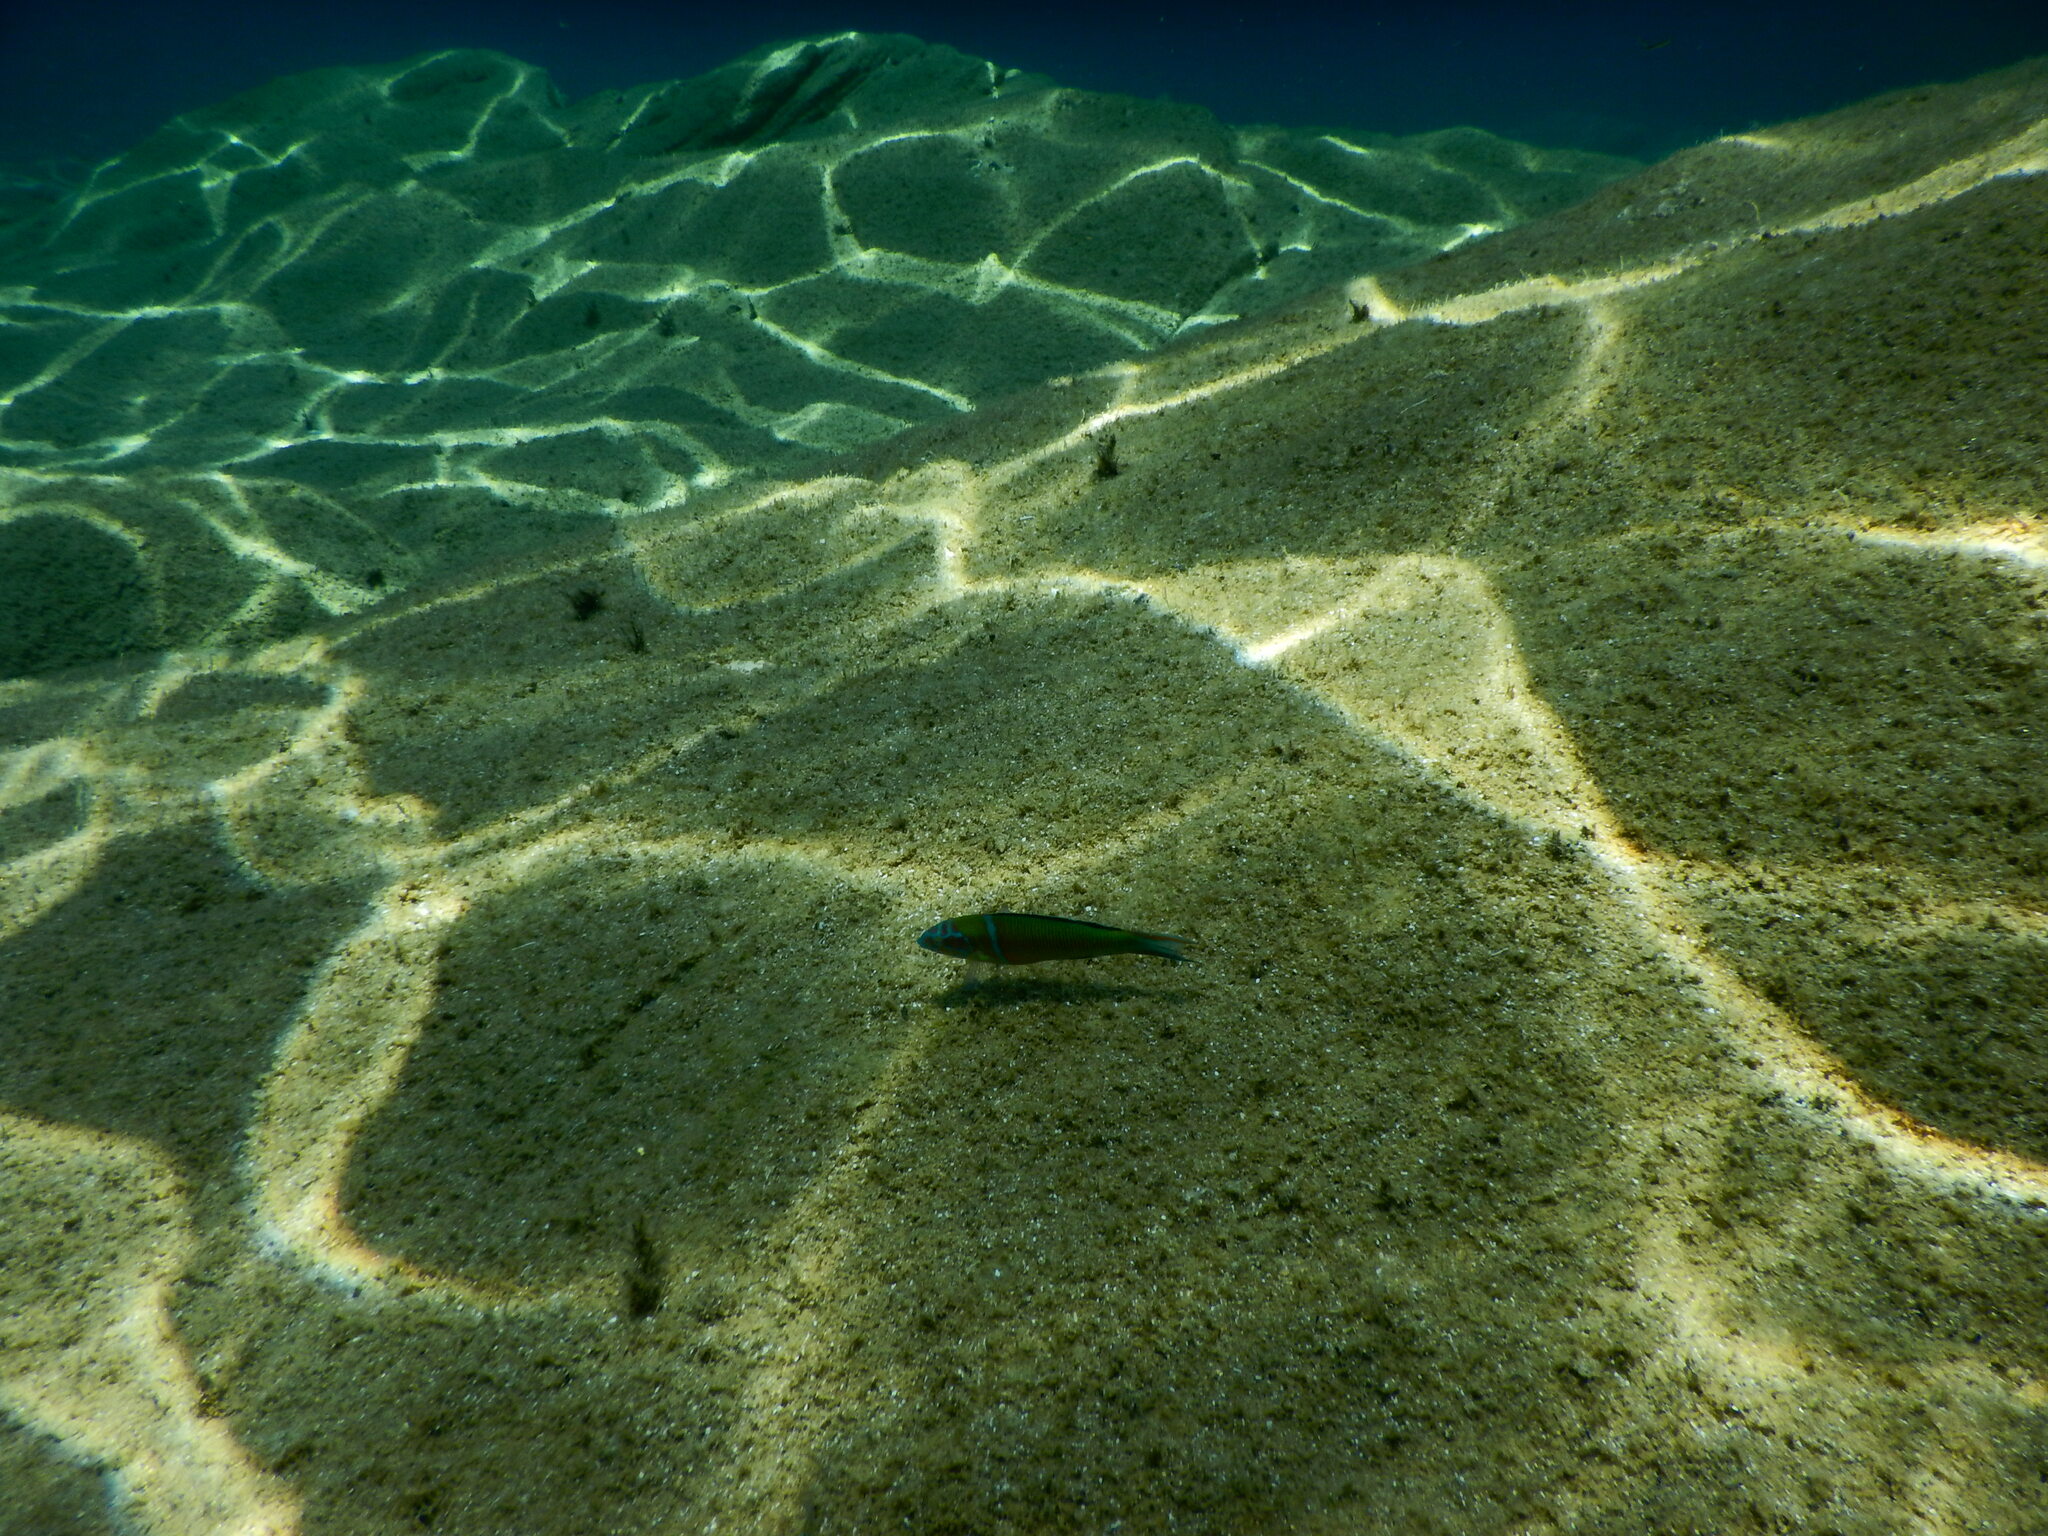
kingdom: Animalia
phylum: Chordata
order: Perciformes
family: Labridae
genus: Thalassoma
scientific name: Thalassoma pavo
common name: Ornate wrasse
